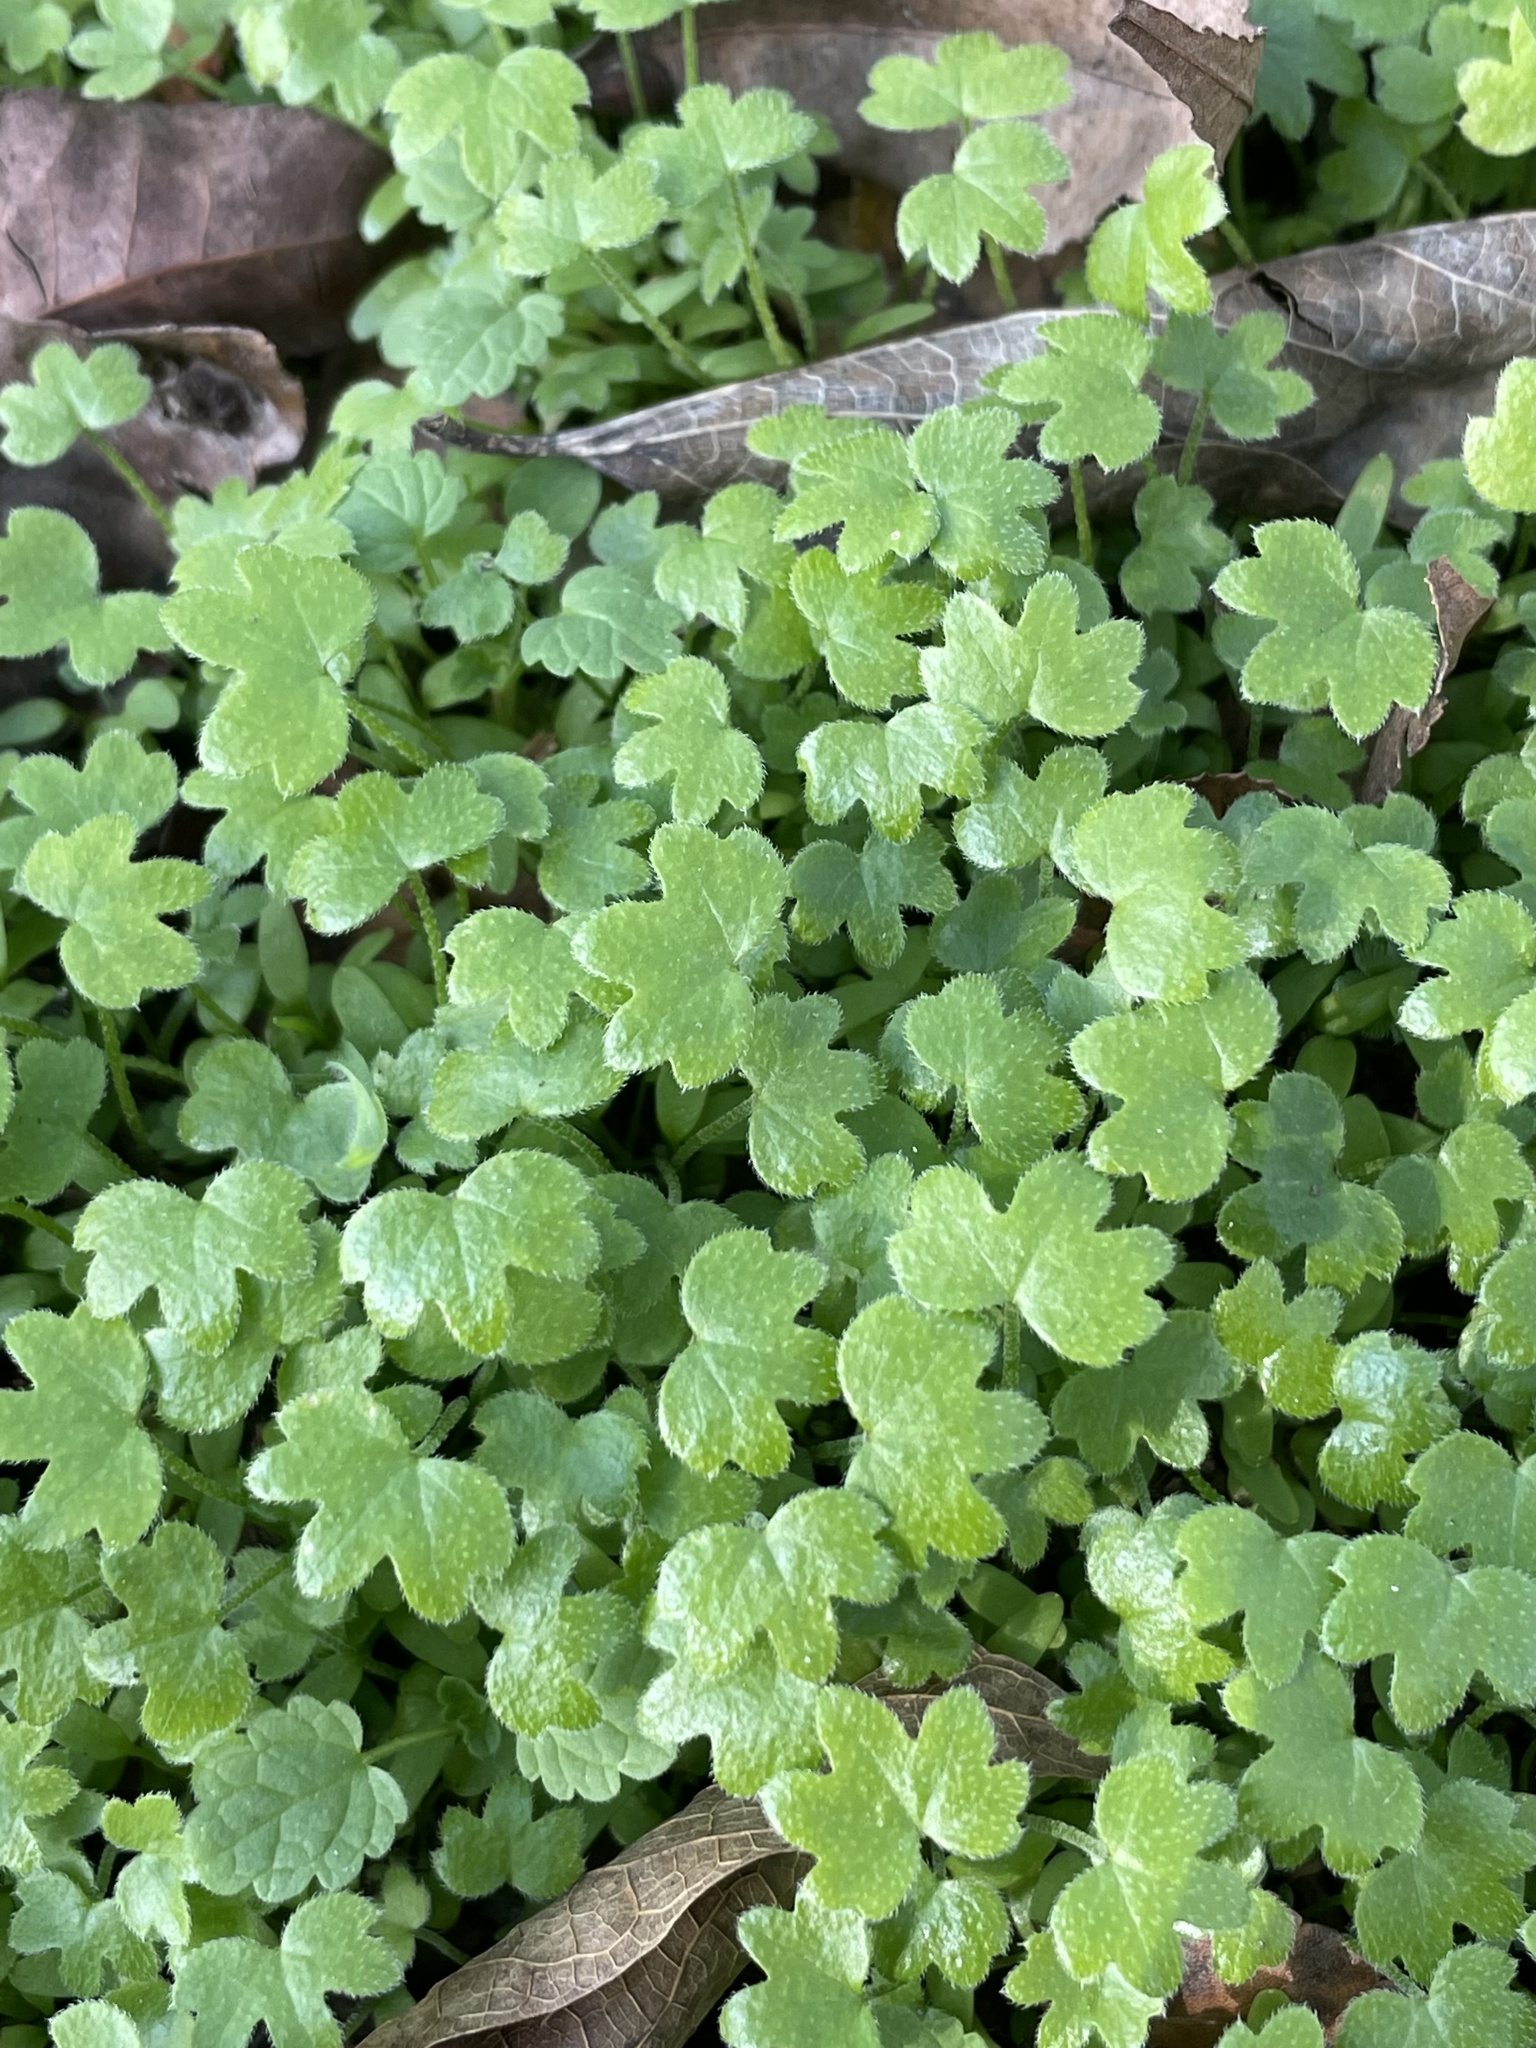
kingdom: Plantae
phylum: Tracheophyta
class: Magnoliopsida
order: Apiales
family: Apiaceae
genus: Bowlesia
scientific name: Bowlesia incana
